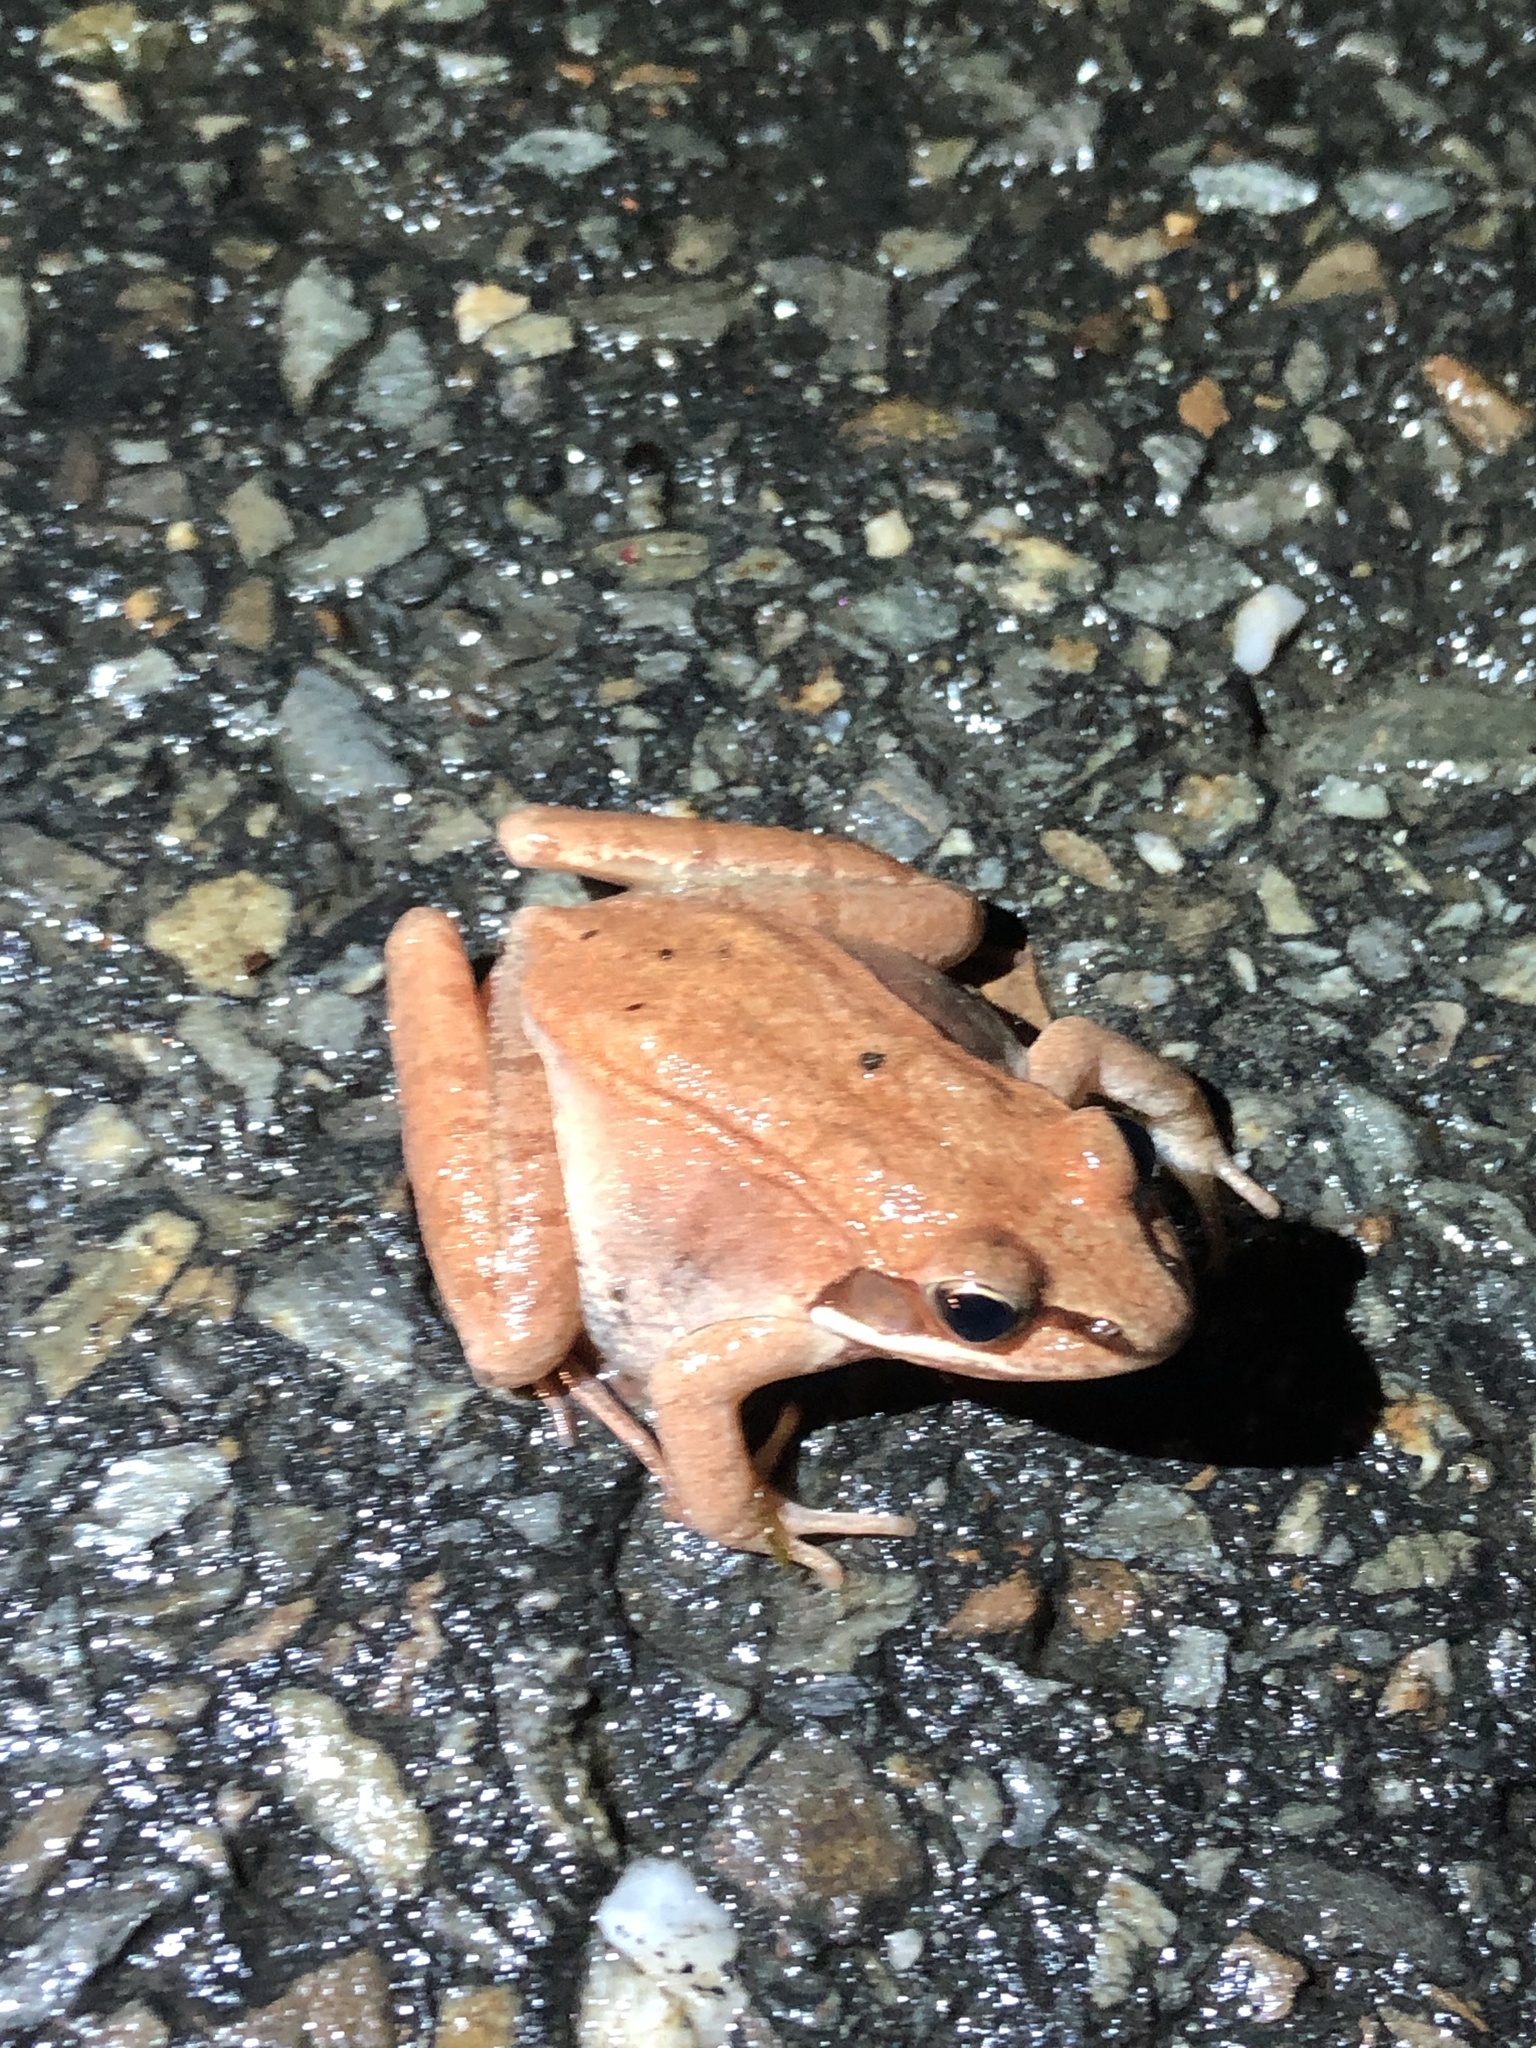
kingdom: Animalia
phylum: Chordata
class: Amphibia
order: Anura
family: Ranidae
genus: Lithobates
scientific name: Lithobates sylvaticus
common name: Wood frog
